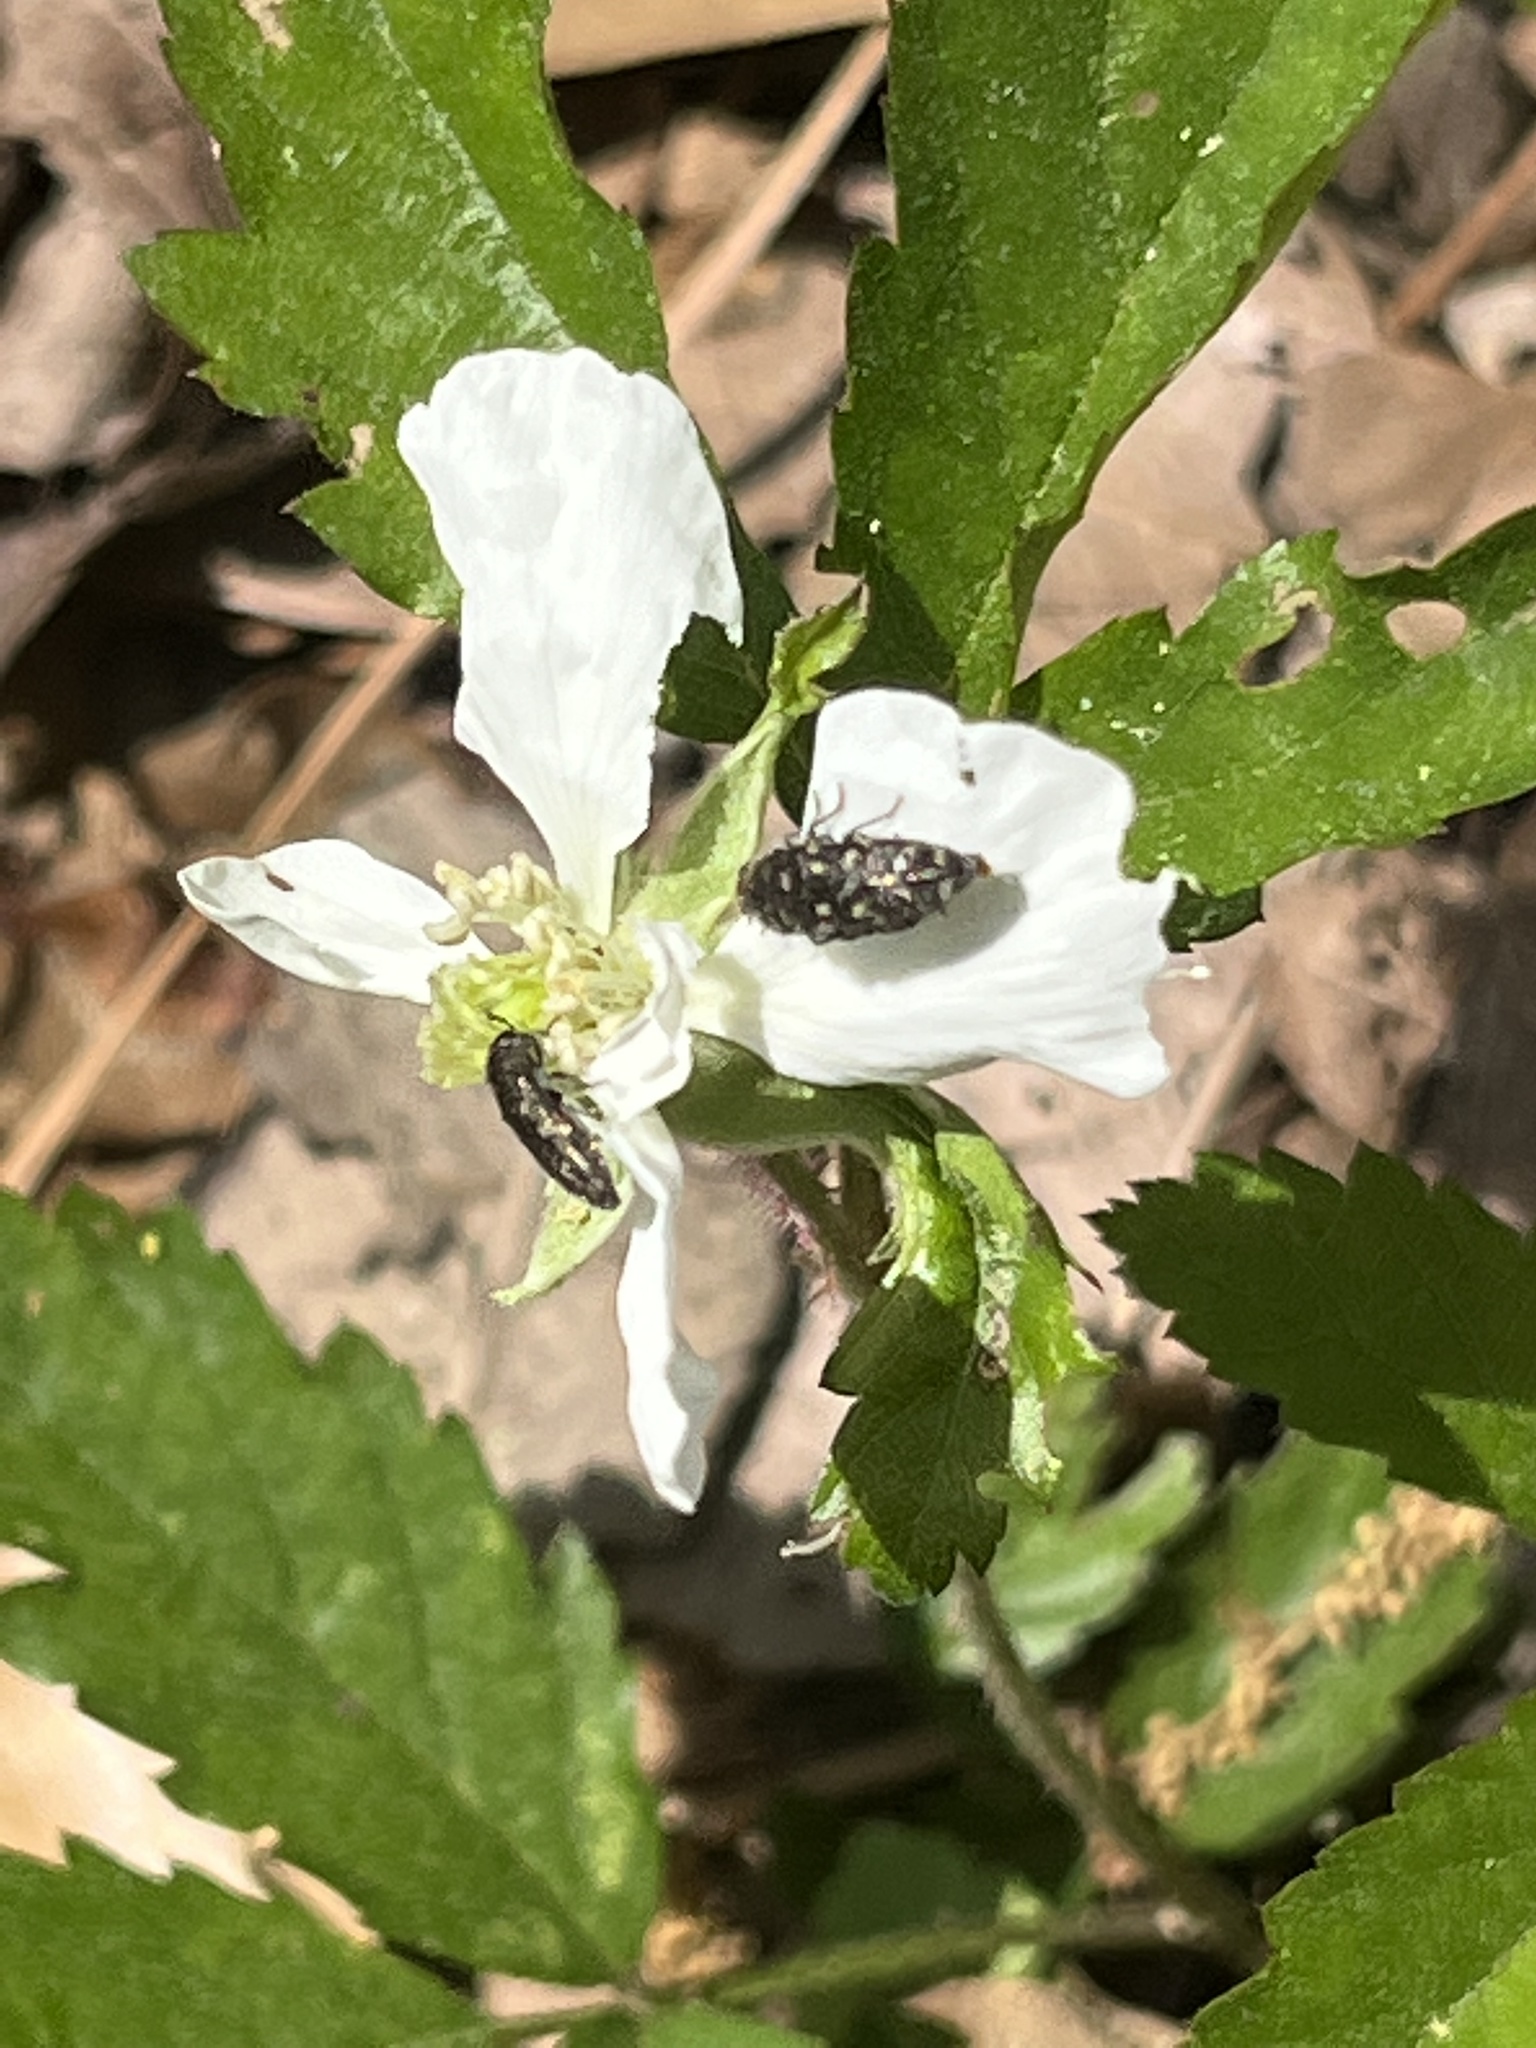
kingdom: Animalia
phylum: Arthropoda
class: Insecta
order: Coleoptera
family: Buprestidae
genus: Acmaeodera
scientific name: Acmaeodera tubulus
